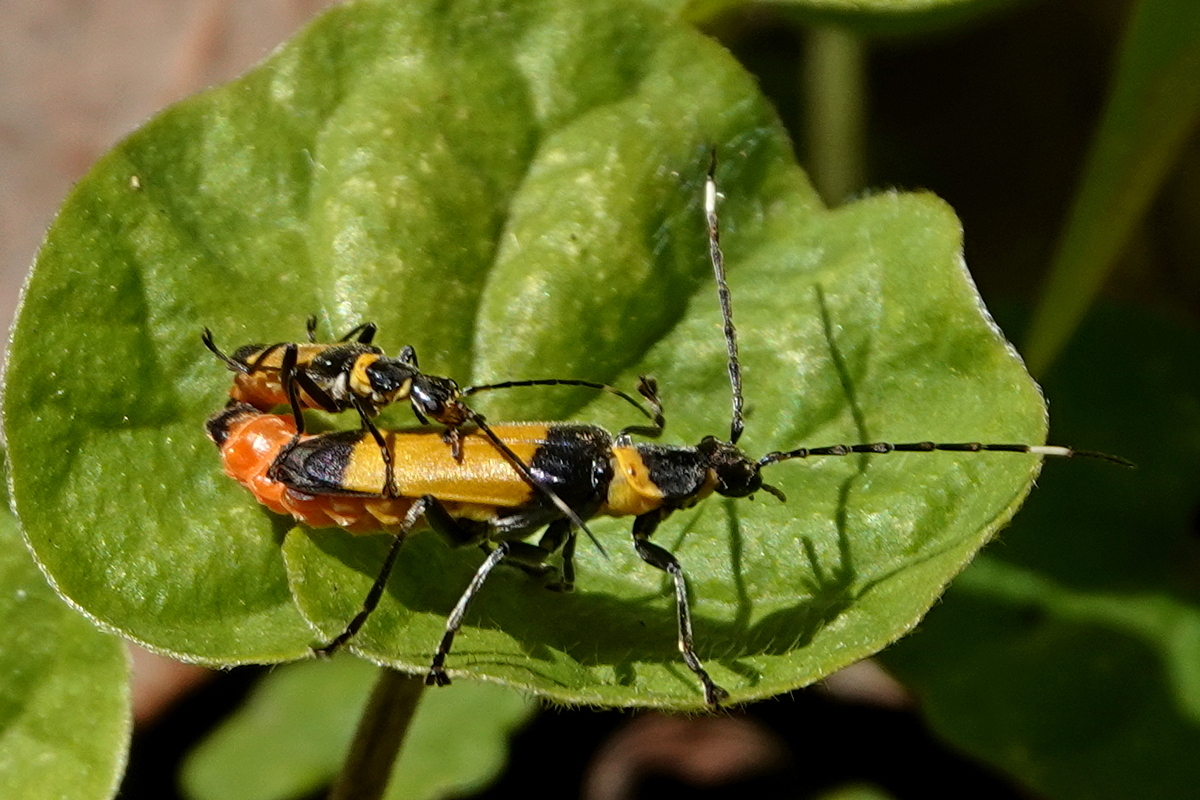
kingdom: Animalia
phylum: Arthropoda
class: Insecta
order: Coleoptera
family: Cantharidae
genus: Chauliognathus
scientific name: Chauliognathus
